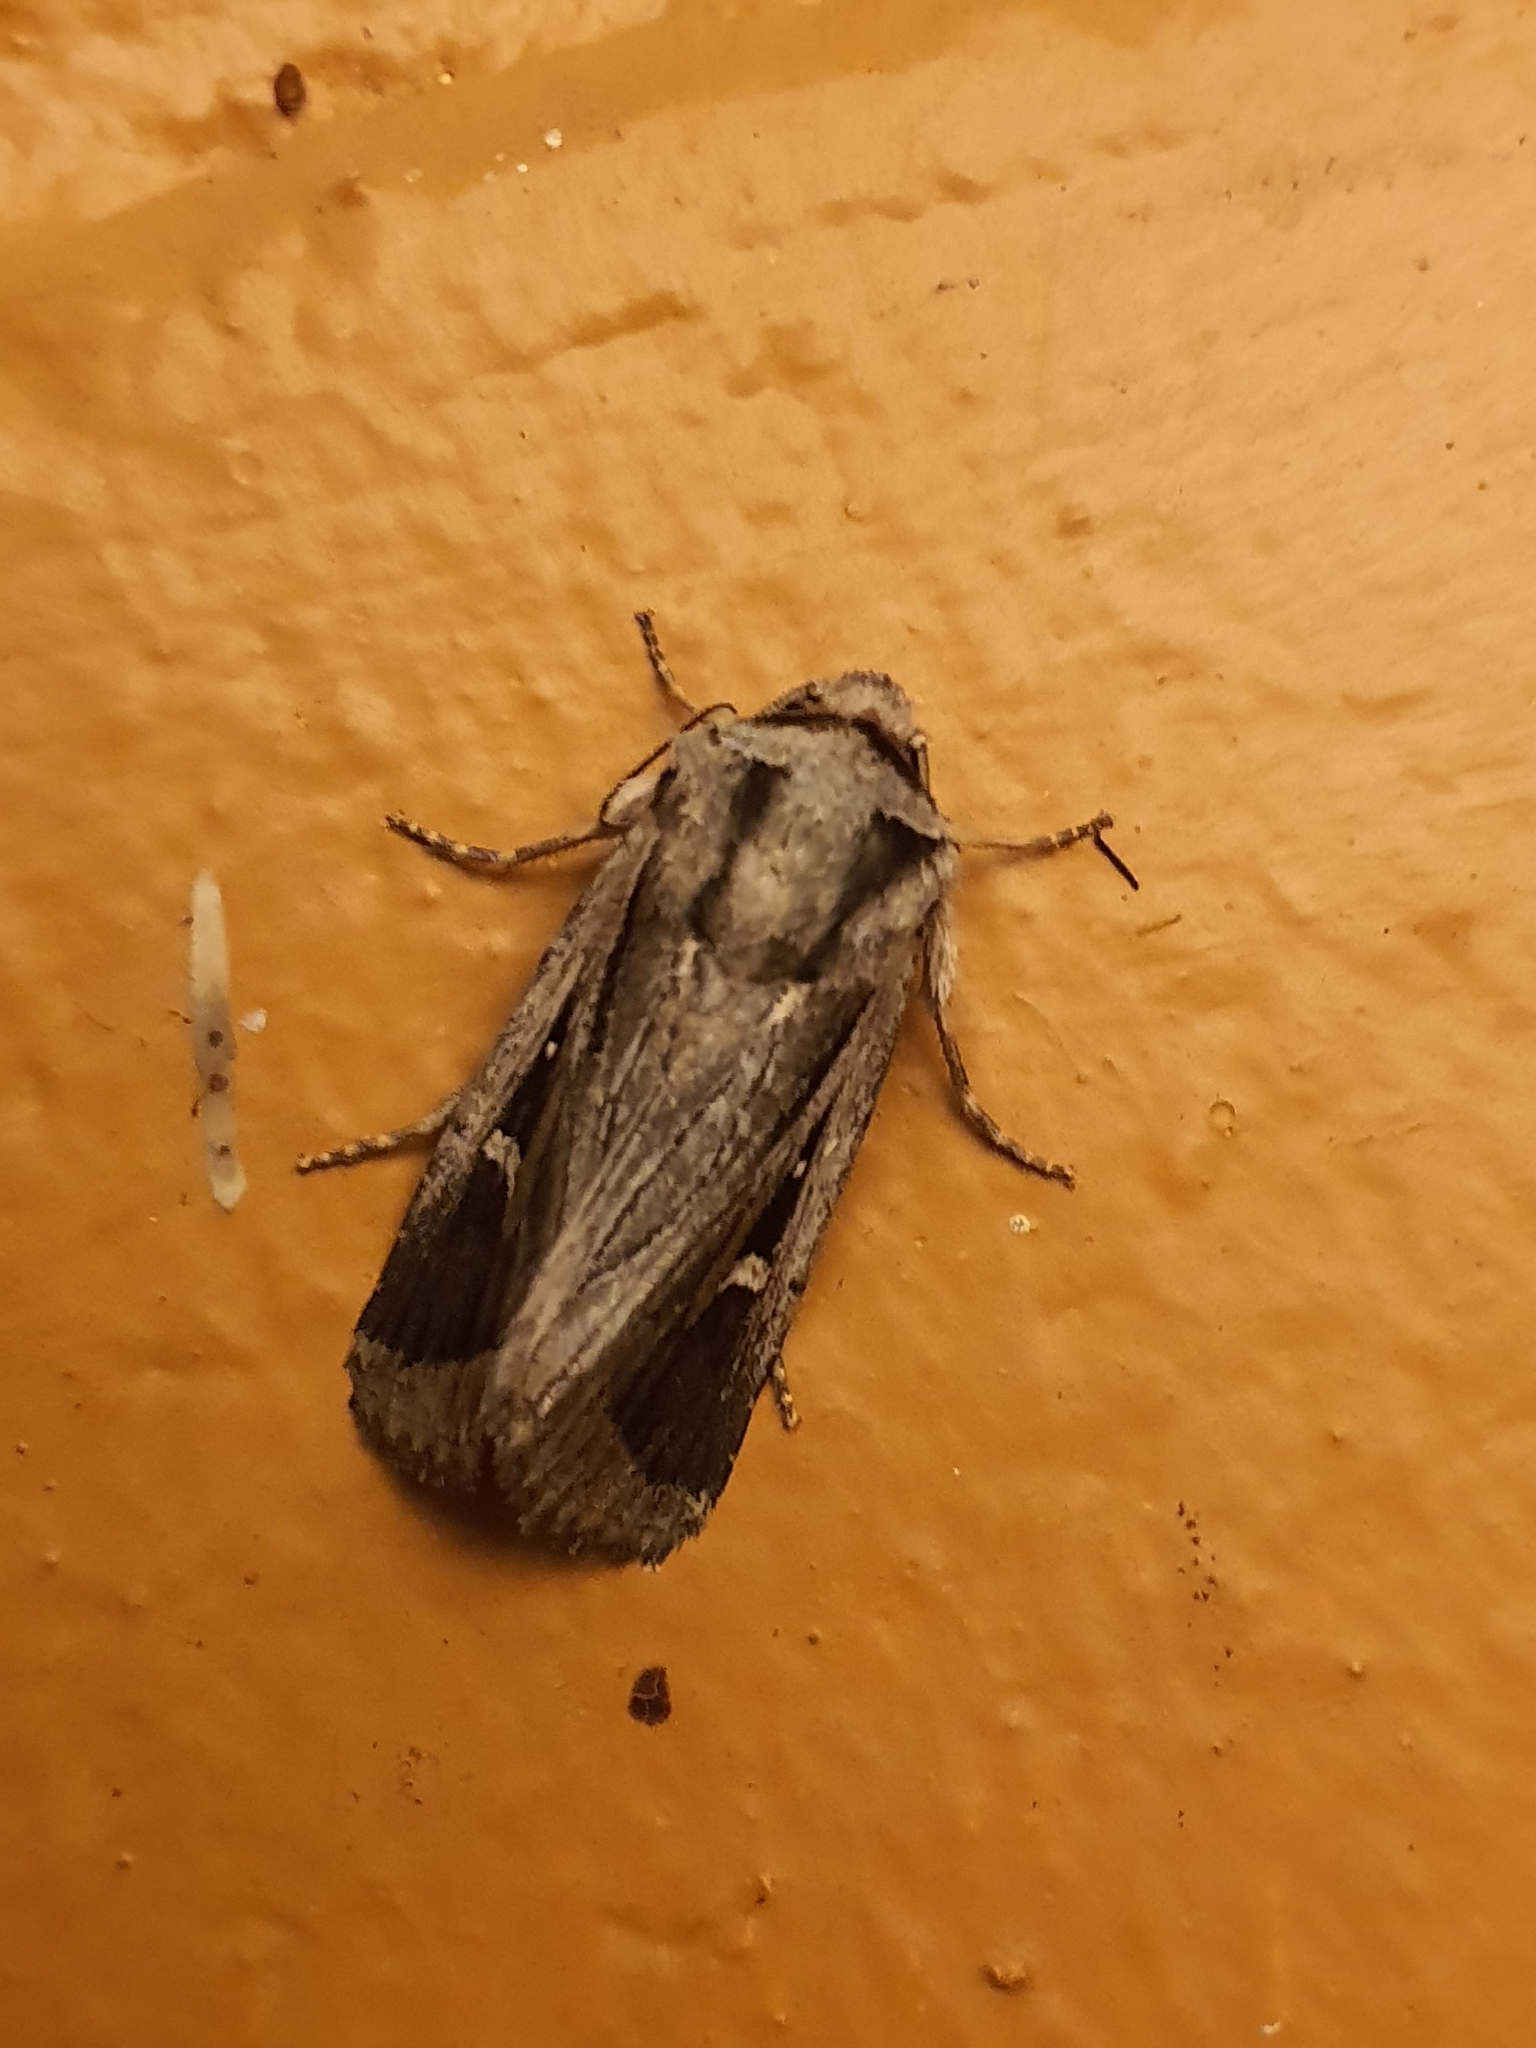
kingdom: Animalia
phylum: Arthropoda
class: Insecta
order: Lepidoptera
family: Noctuidae
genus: Proteuxoa
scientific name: Proteuxoa paragypsa
